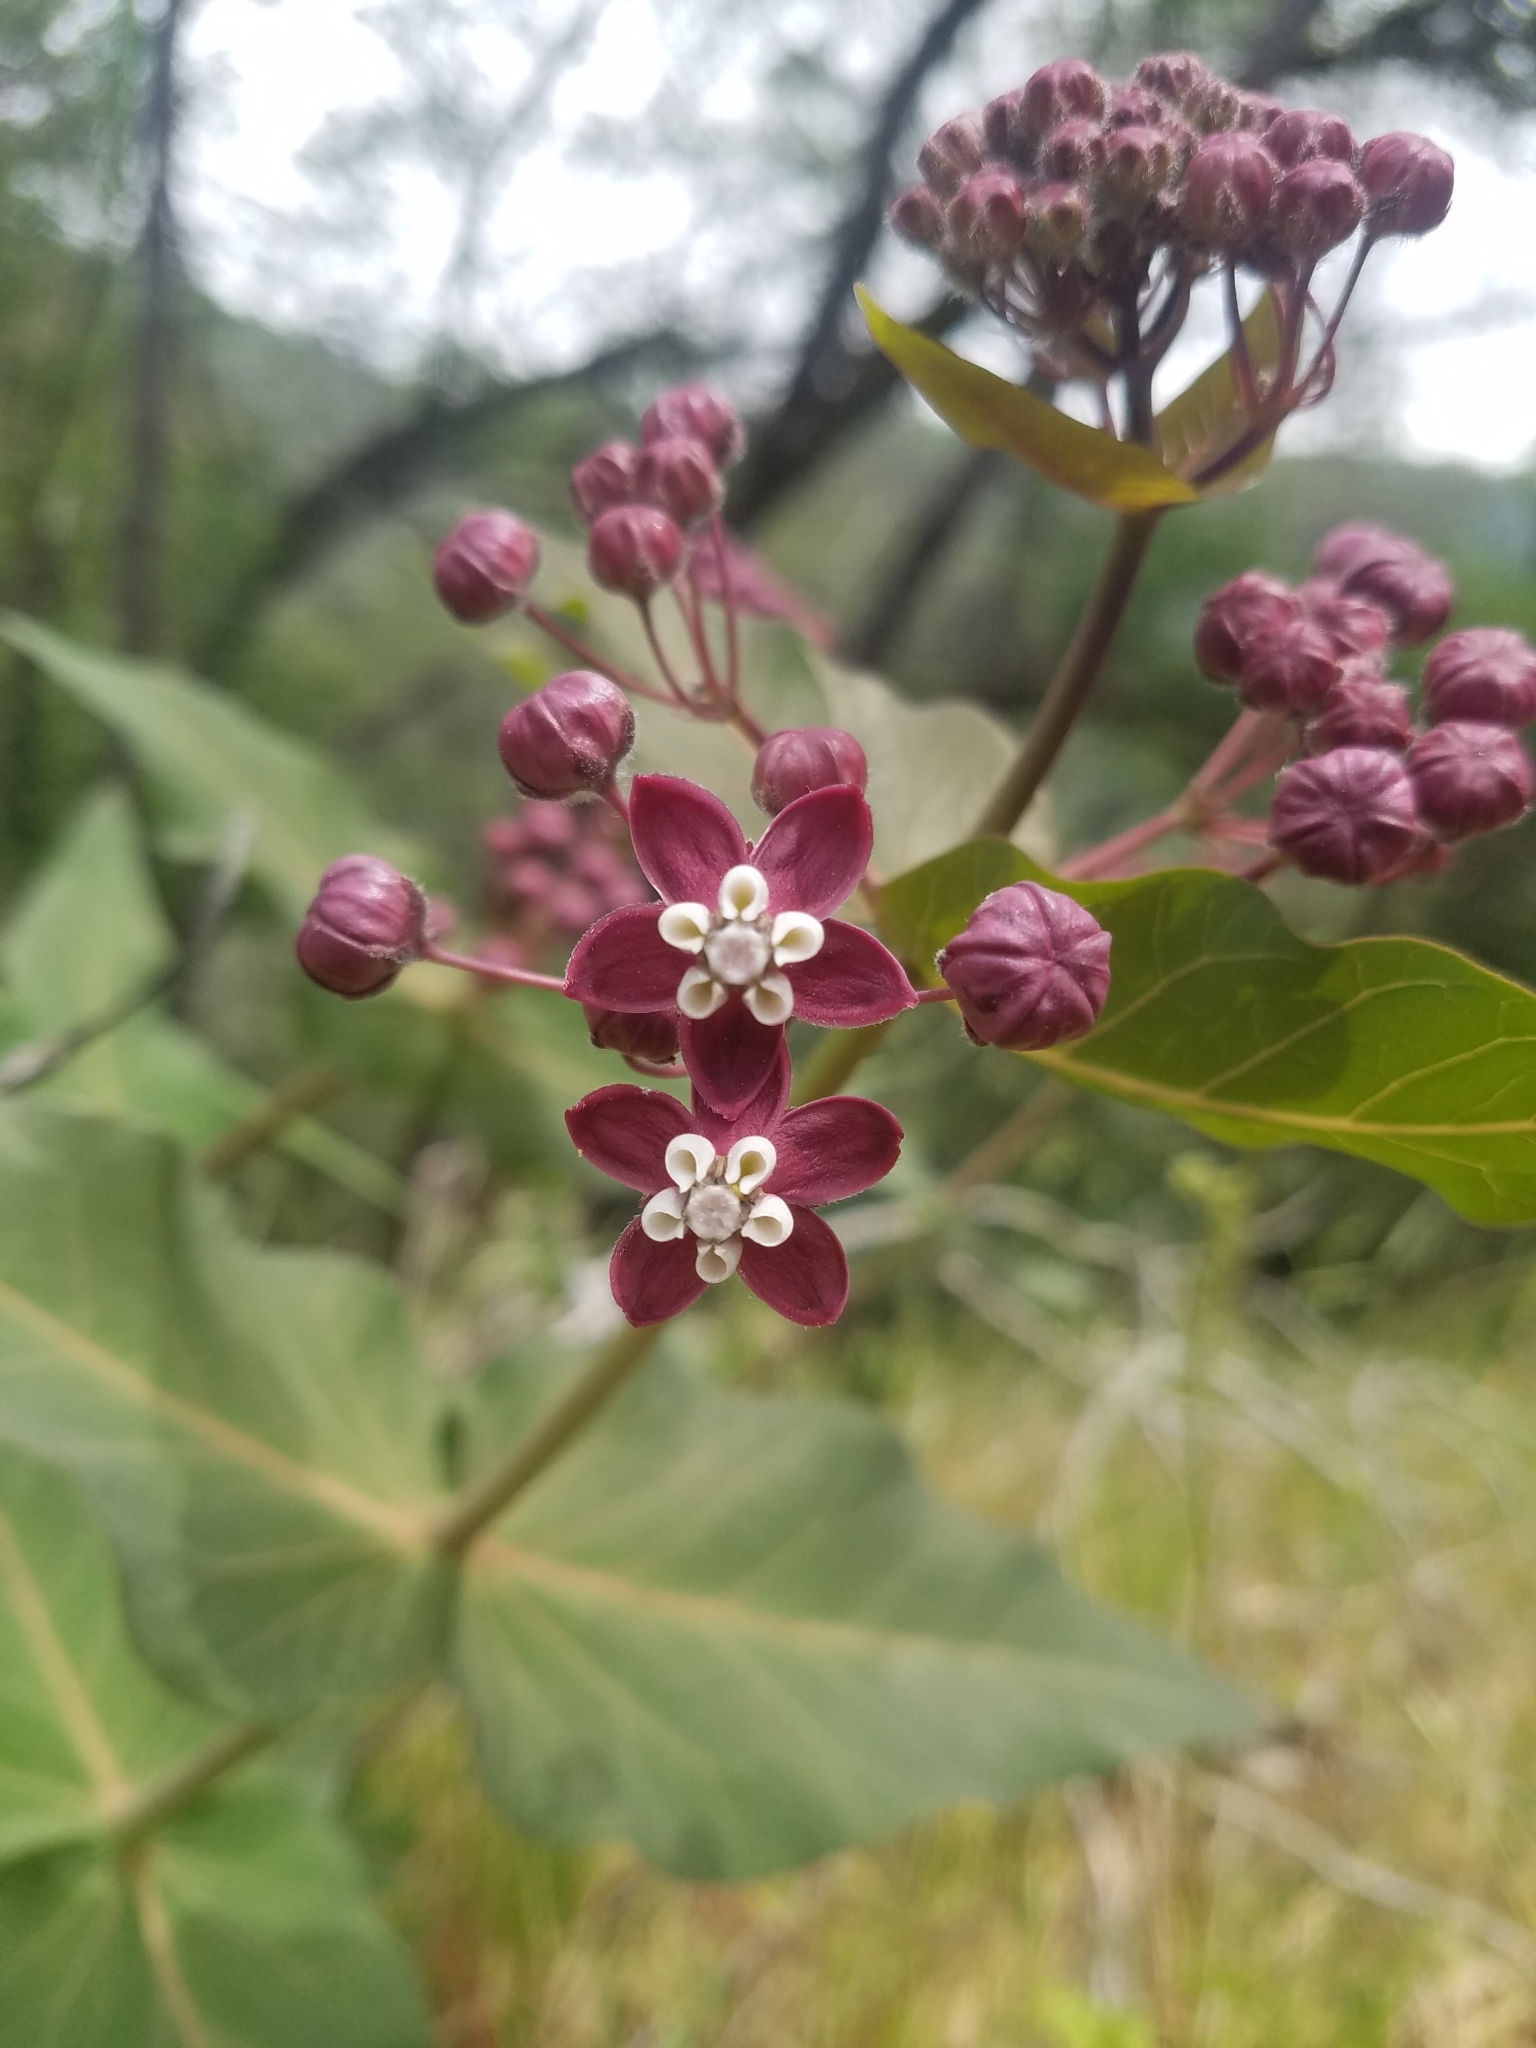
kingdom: Plantae
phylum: Tracheophyta
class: Magnoliopsida
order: Gentianales
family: Apocynaceae
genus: Asclepias
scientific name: Asclepias cordifolia
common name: Purple milkweed
